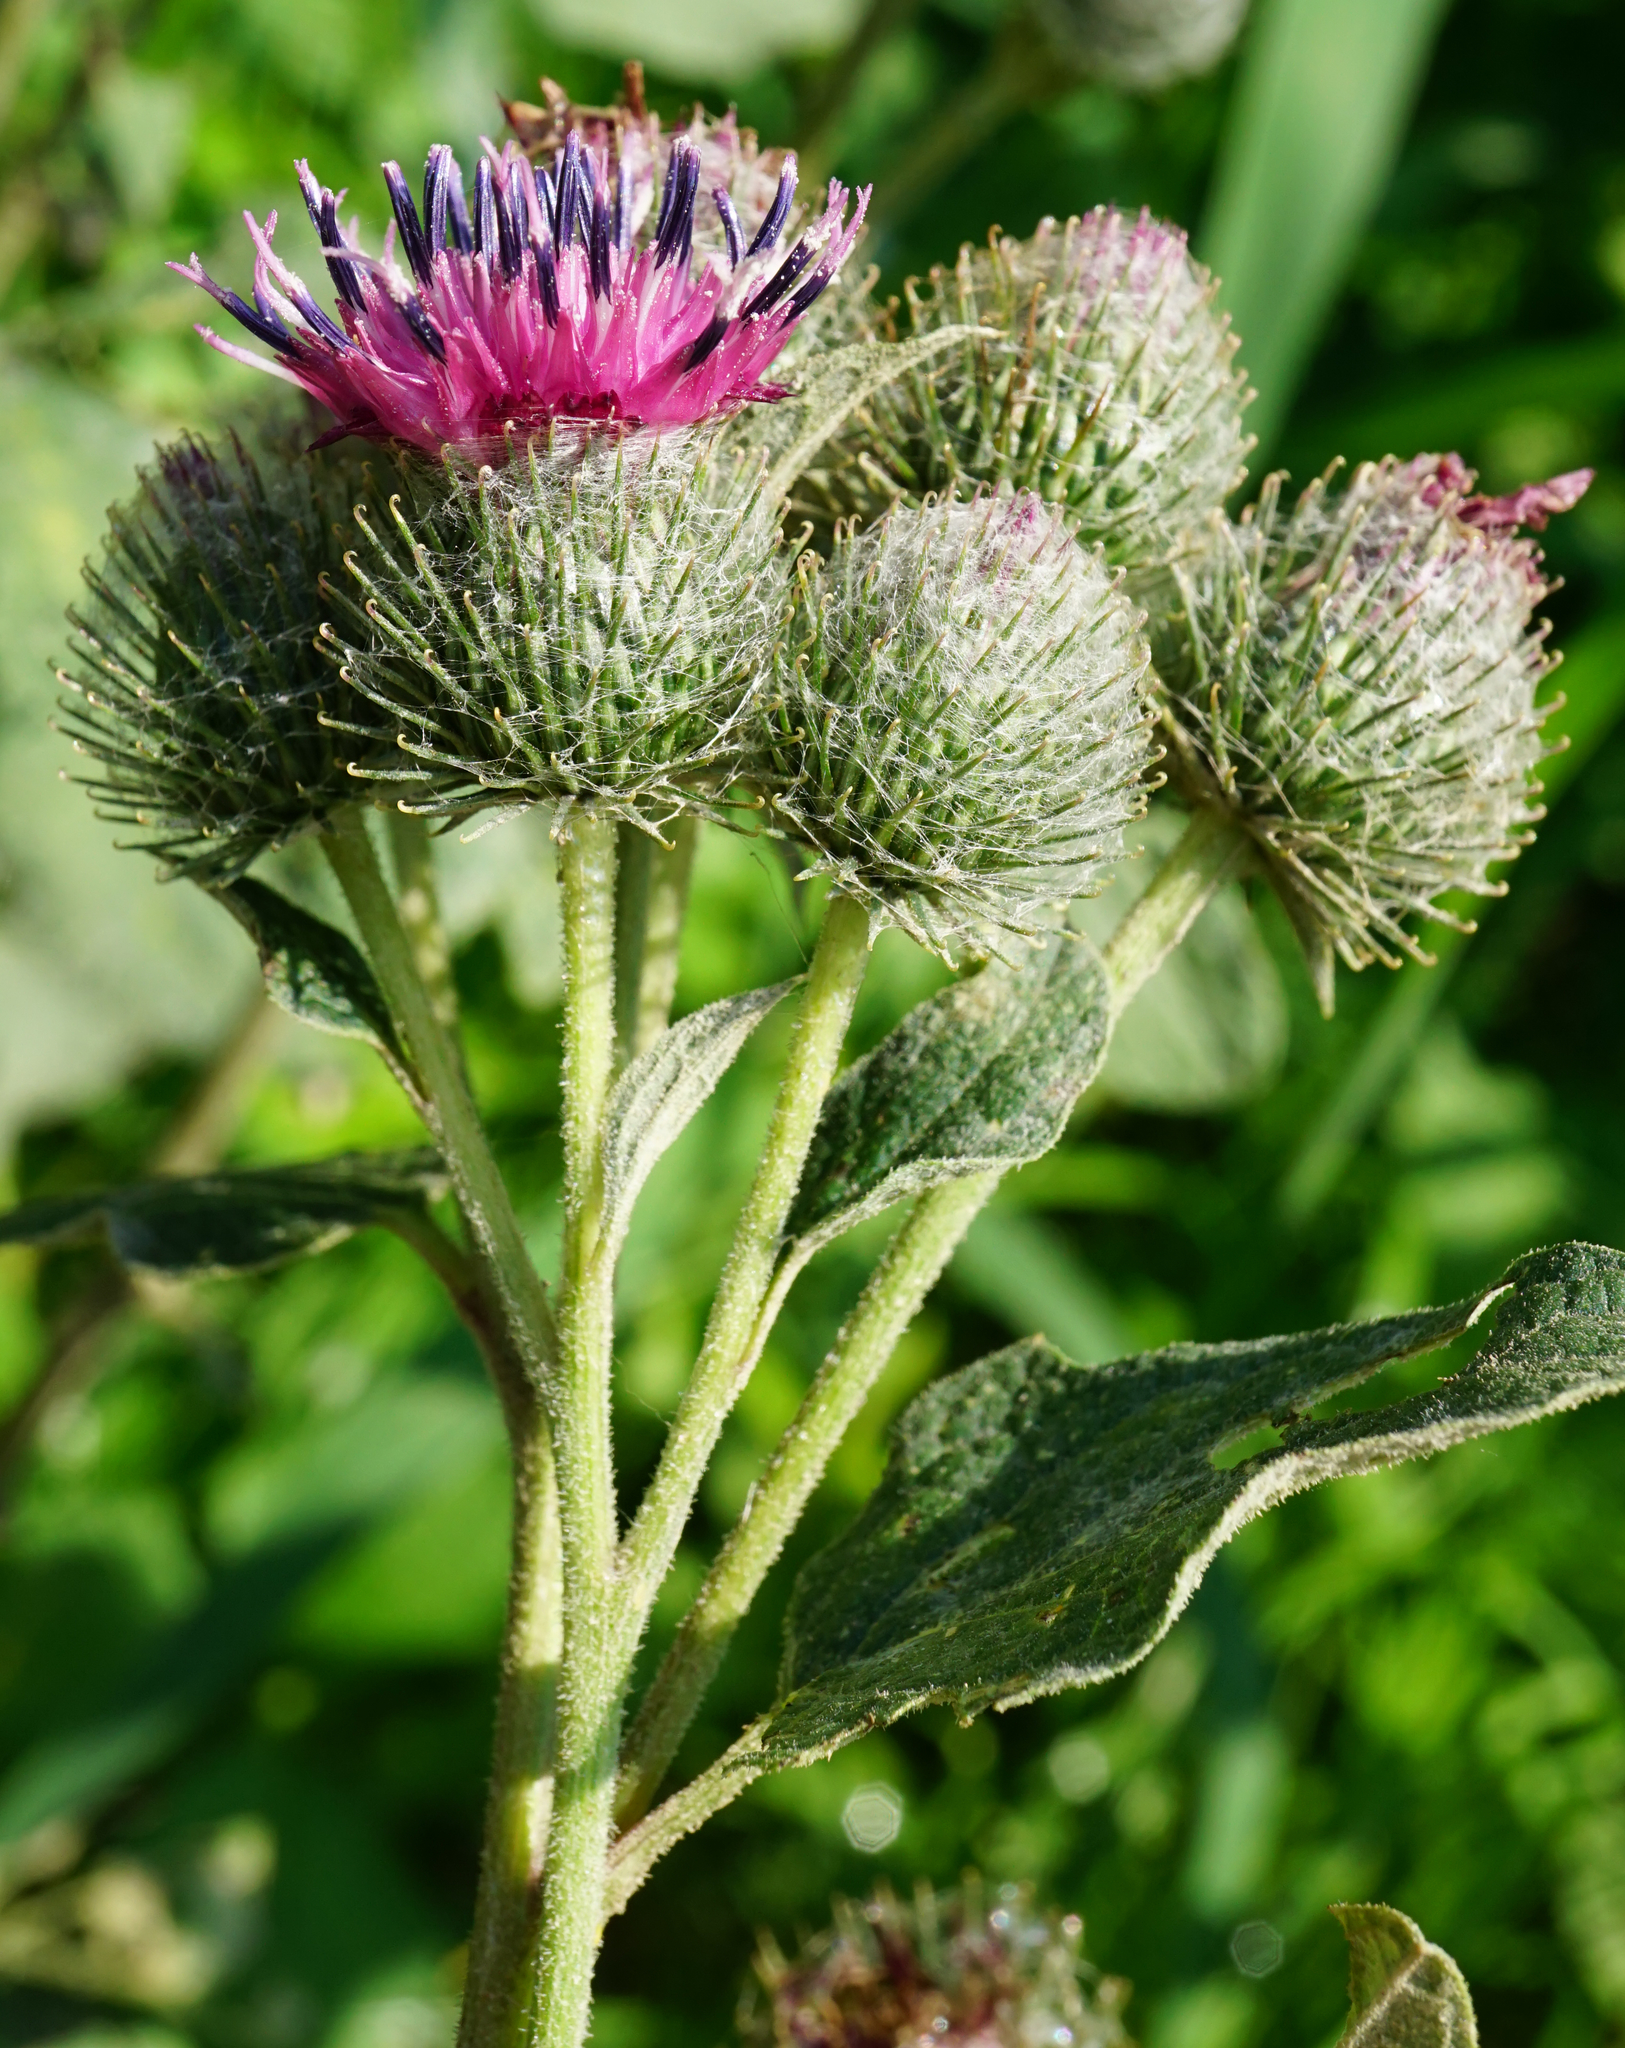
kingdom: Plantae
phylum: Tracheophyta
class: Magnoliopsida
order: Asterales
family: Asteraceae
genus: Arctium
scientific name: Arctium tomentosum
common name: Woolly burdock
